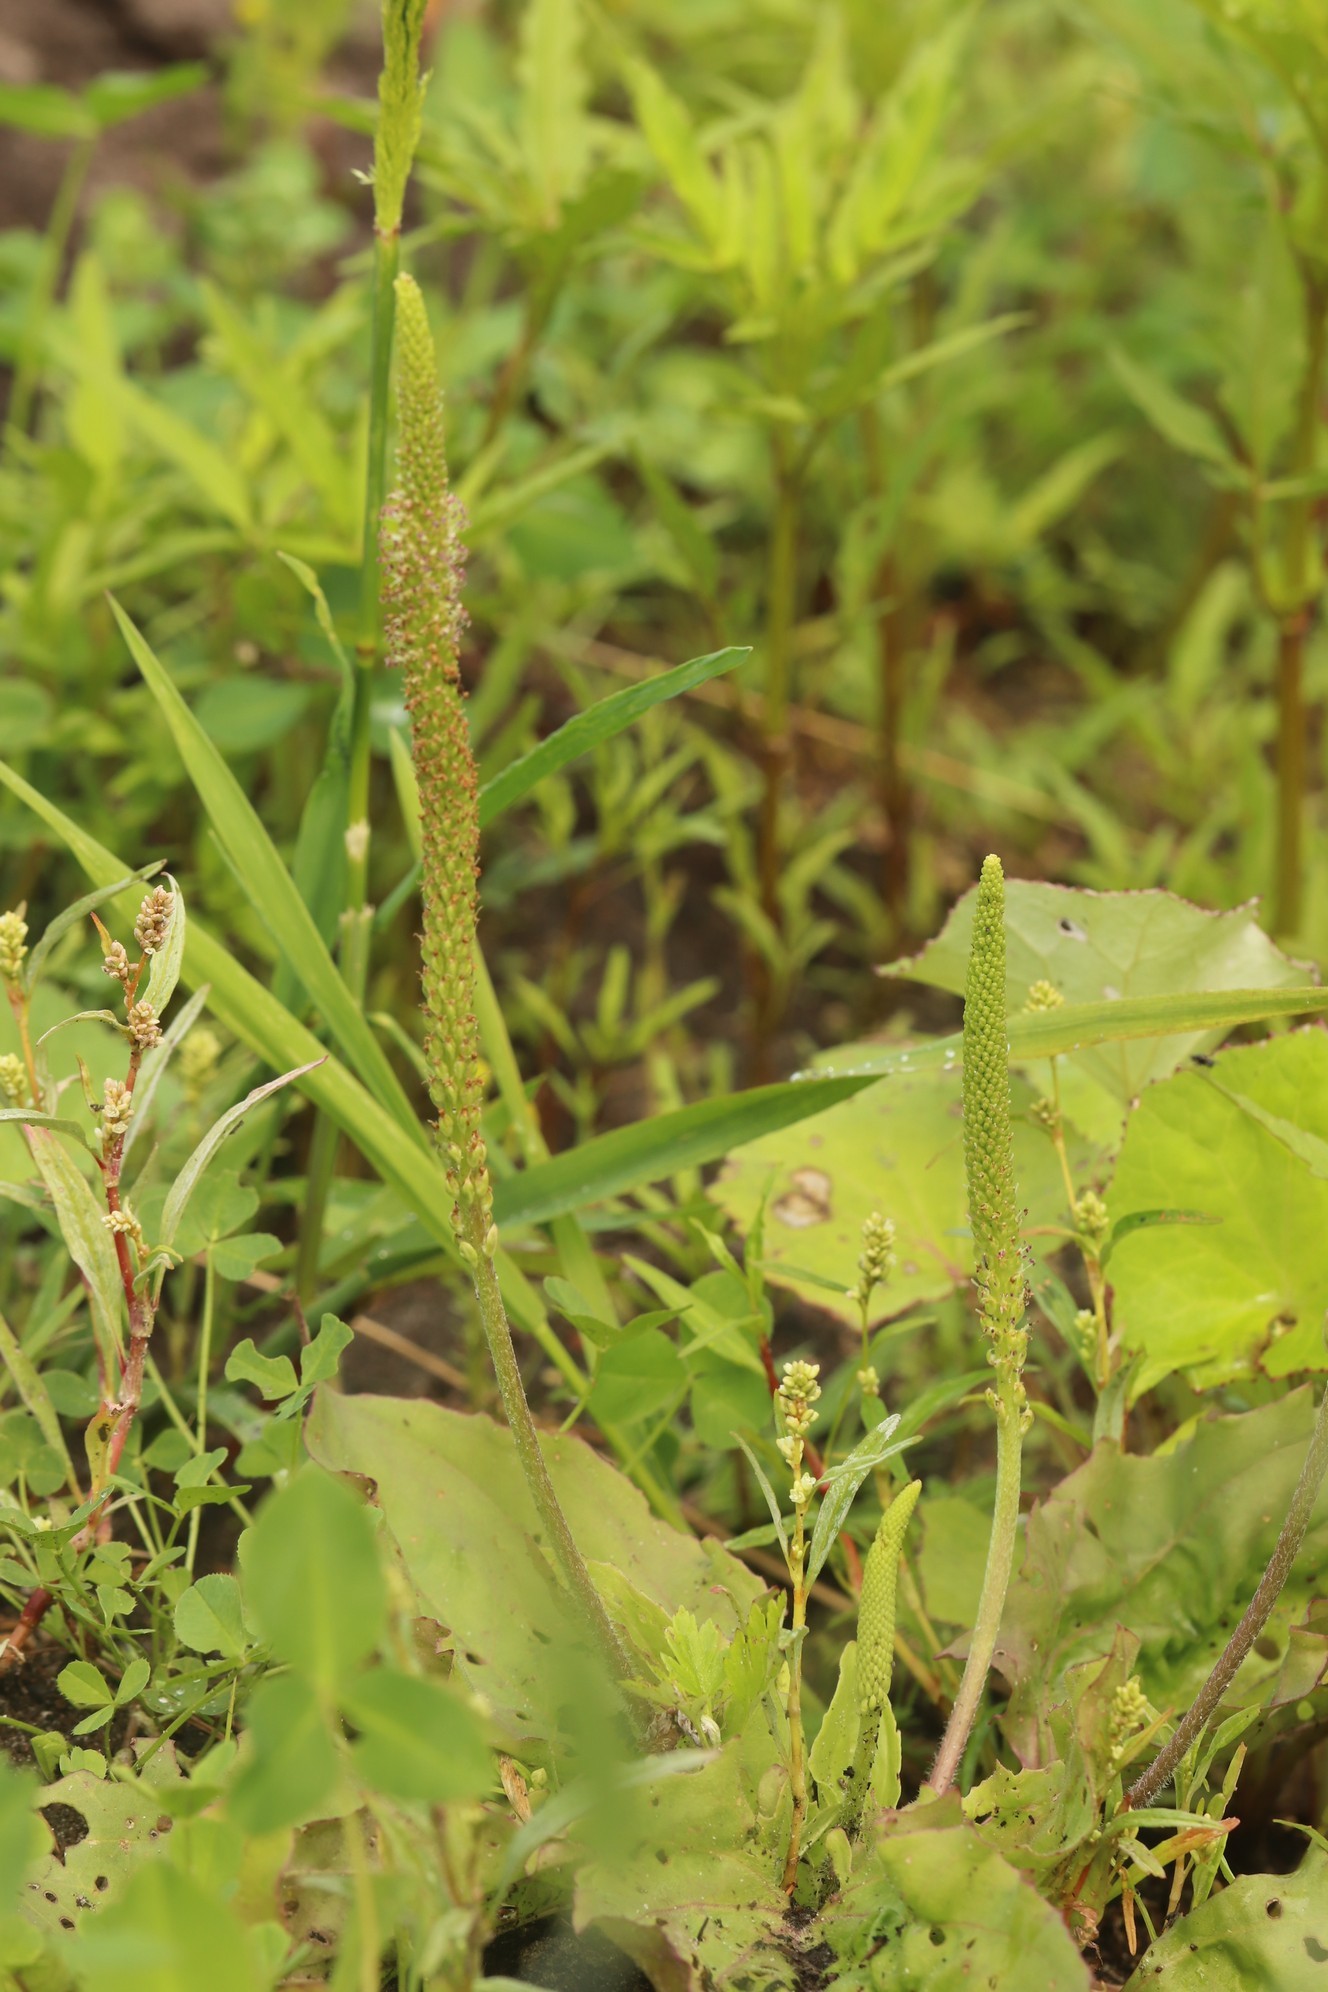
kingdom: Plantae
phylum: Tracheophyta
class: Magnoliopsida
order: Lamiales
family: Plantaginaceae
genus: Plantago
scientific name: Plantago major
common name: Common plantain
